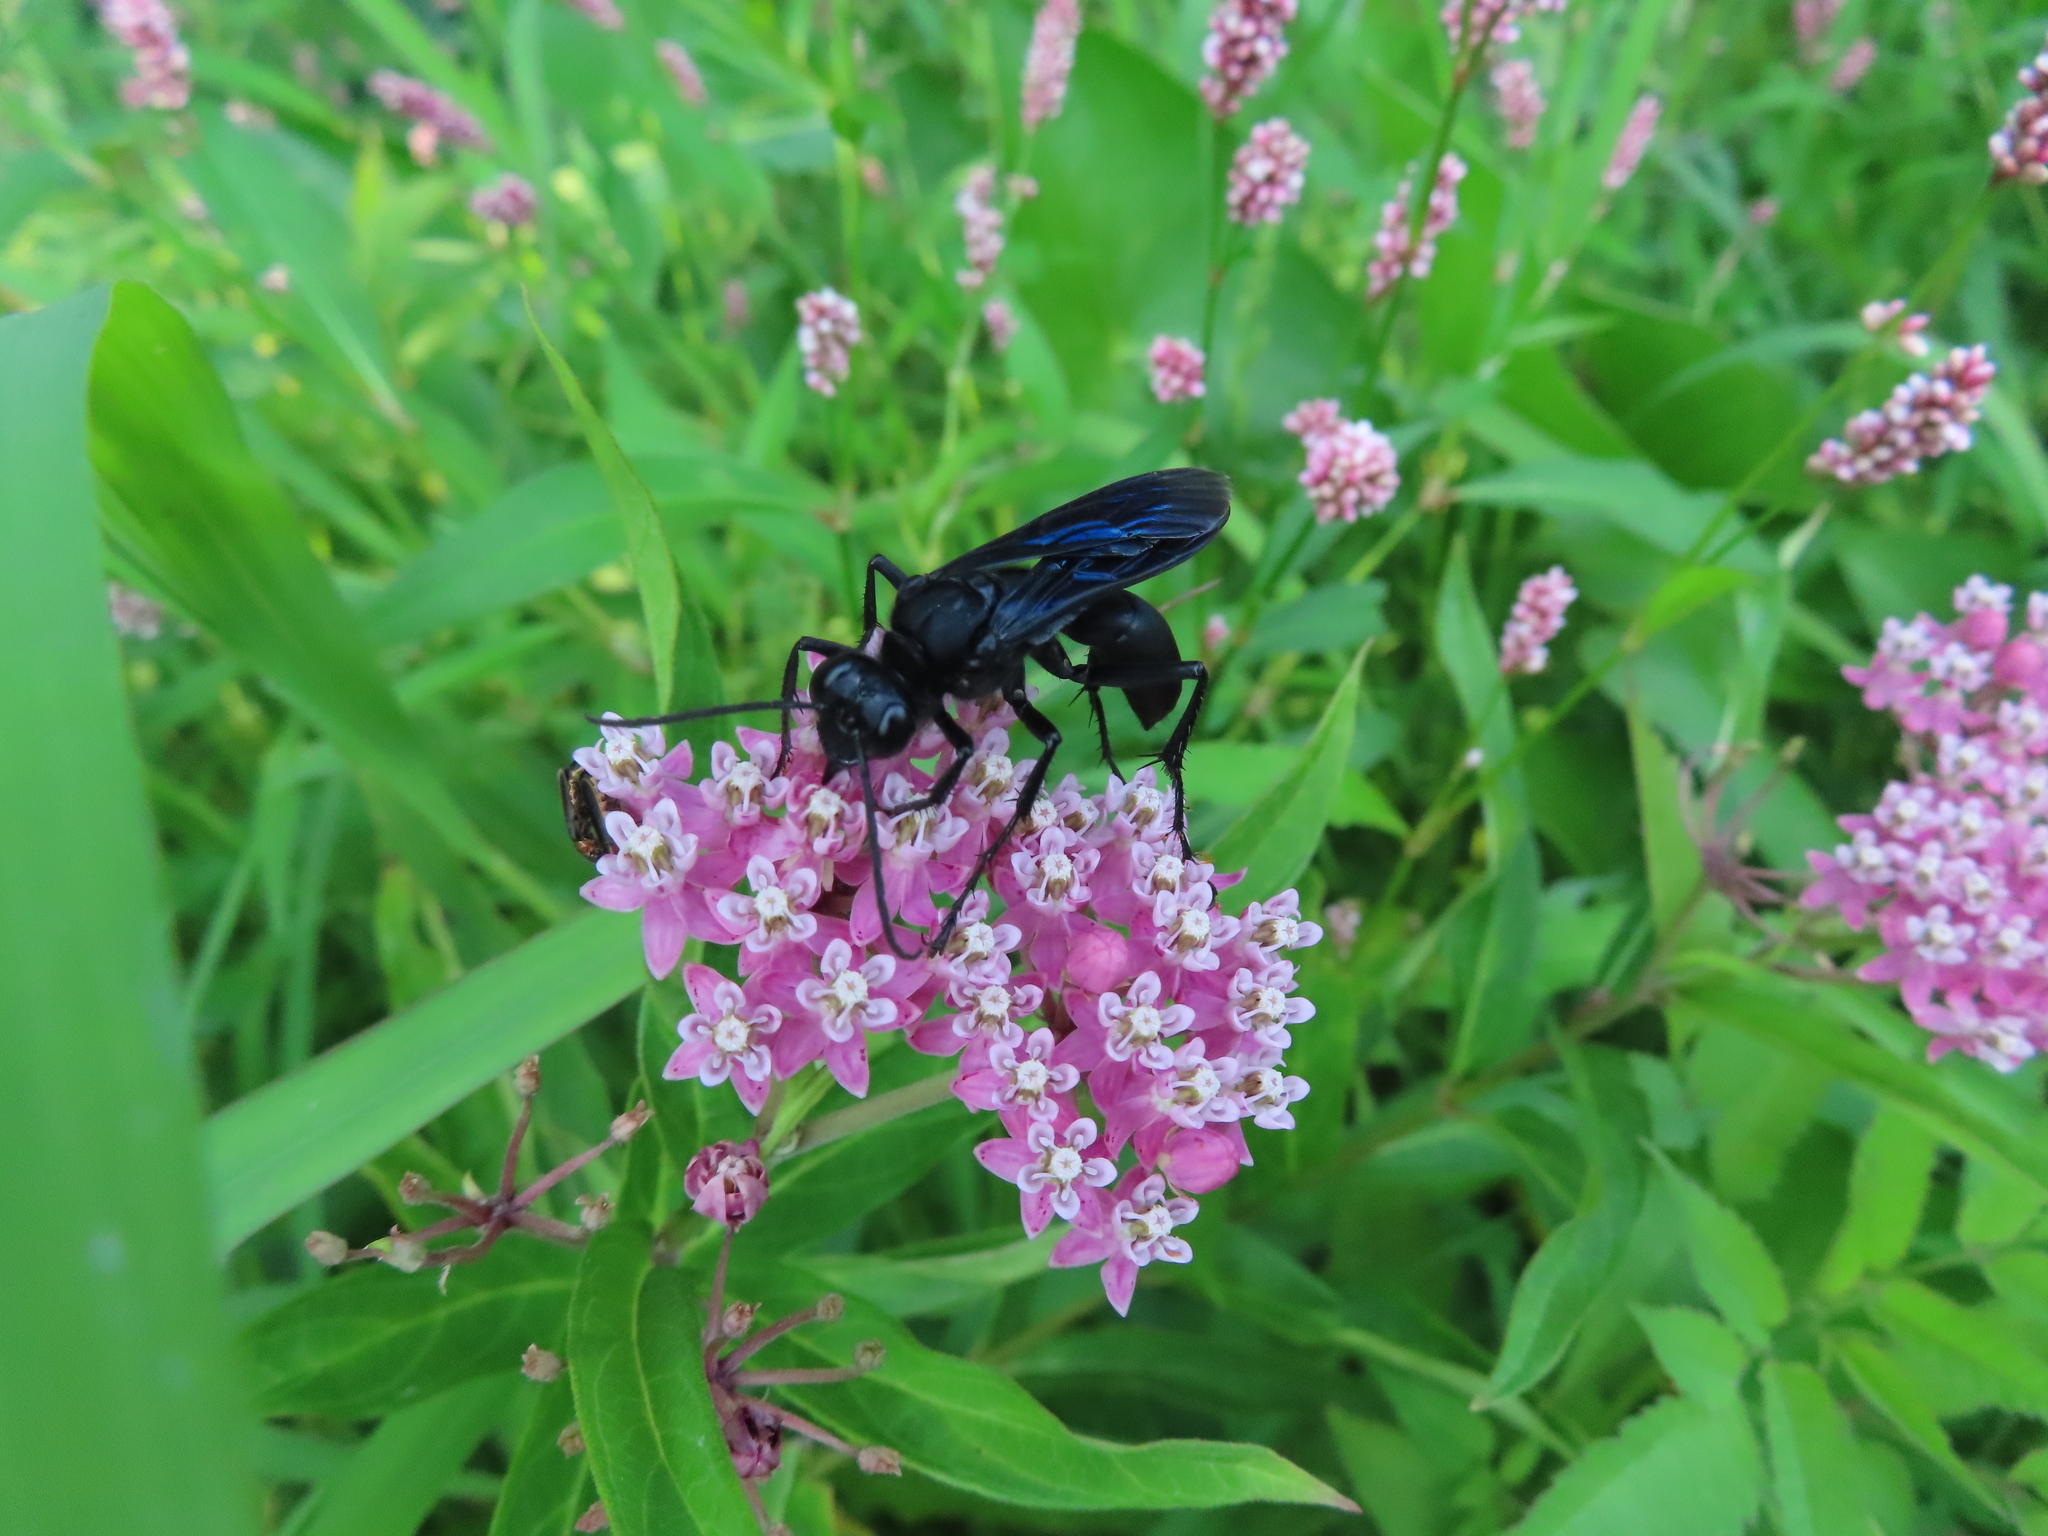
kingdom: Animalia
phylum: Arthropoda
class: Insecta
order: Hymenoptera
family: Sphecidae
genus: Sphex
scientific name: Sphex pensylvanicus
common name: Great black digger wasp
